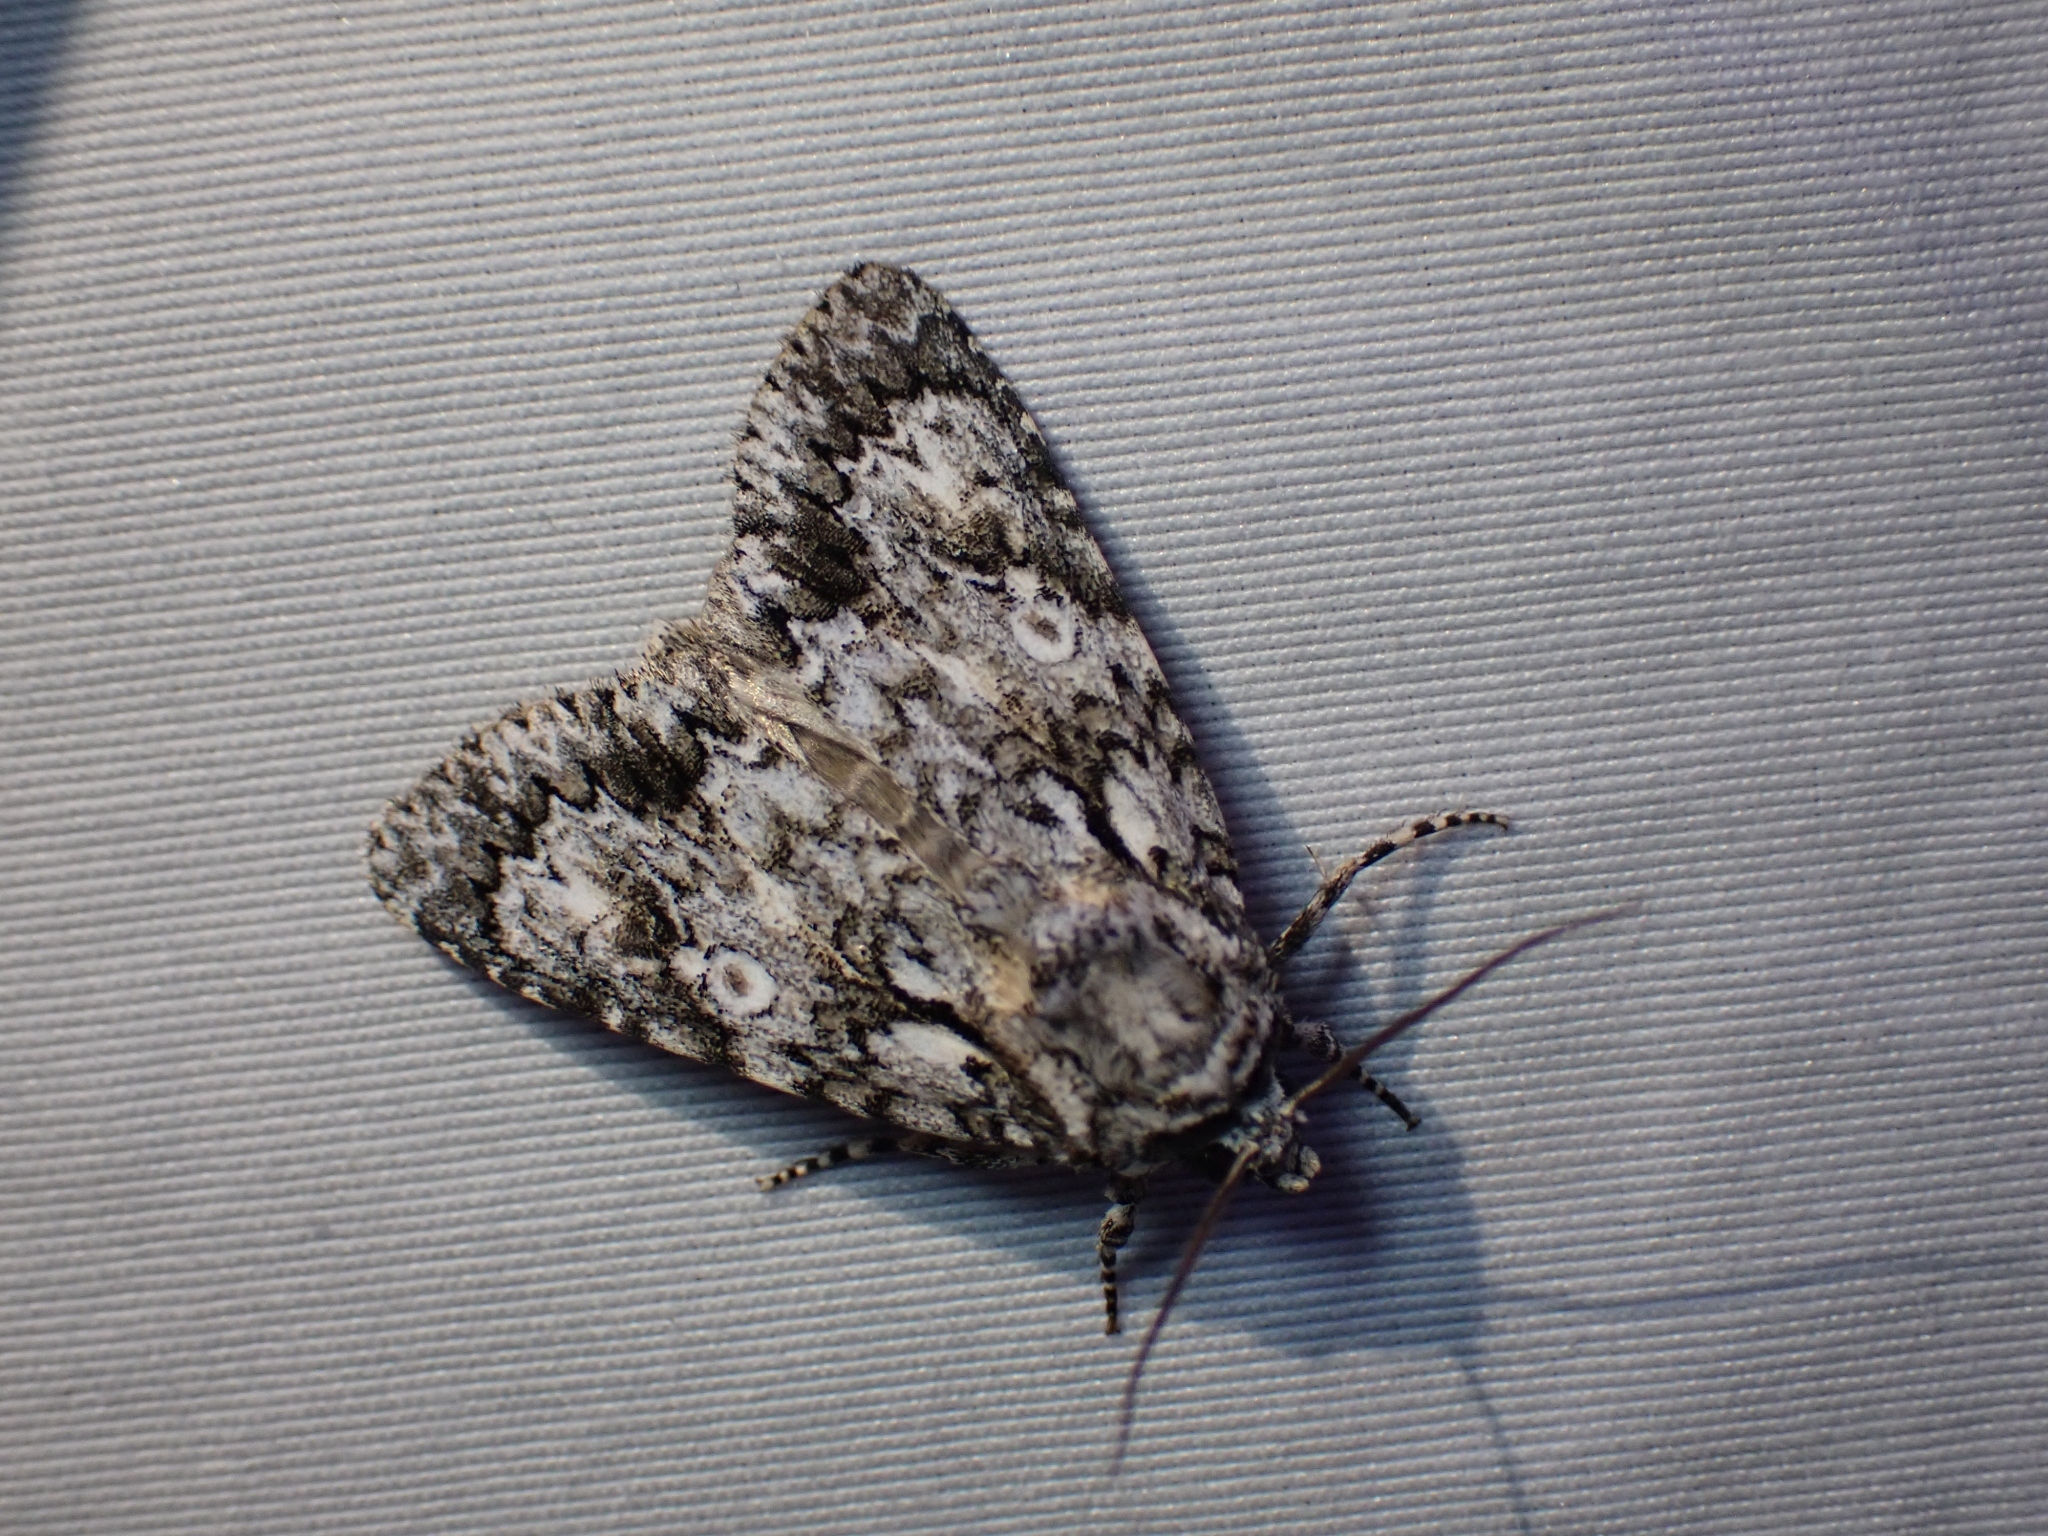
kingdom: Animalia
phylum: Arthropoda
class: Insecta
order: Lepidoptera
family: Noctuidae
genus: Acronicta
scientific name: Acronicta marmorata
